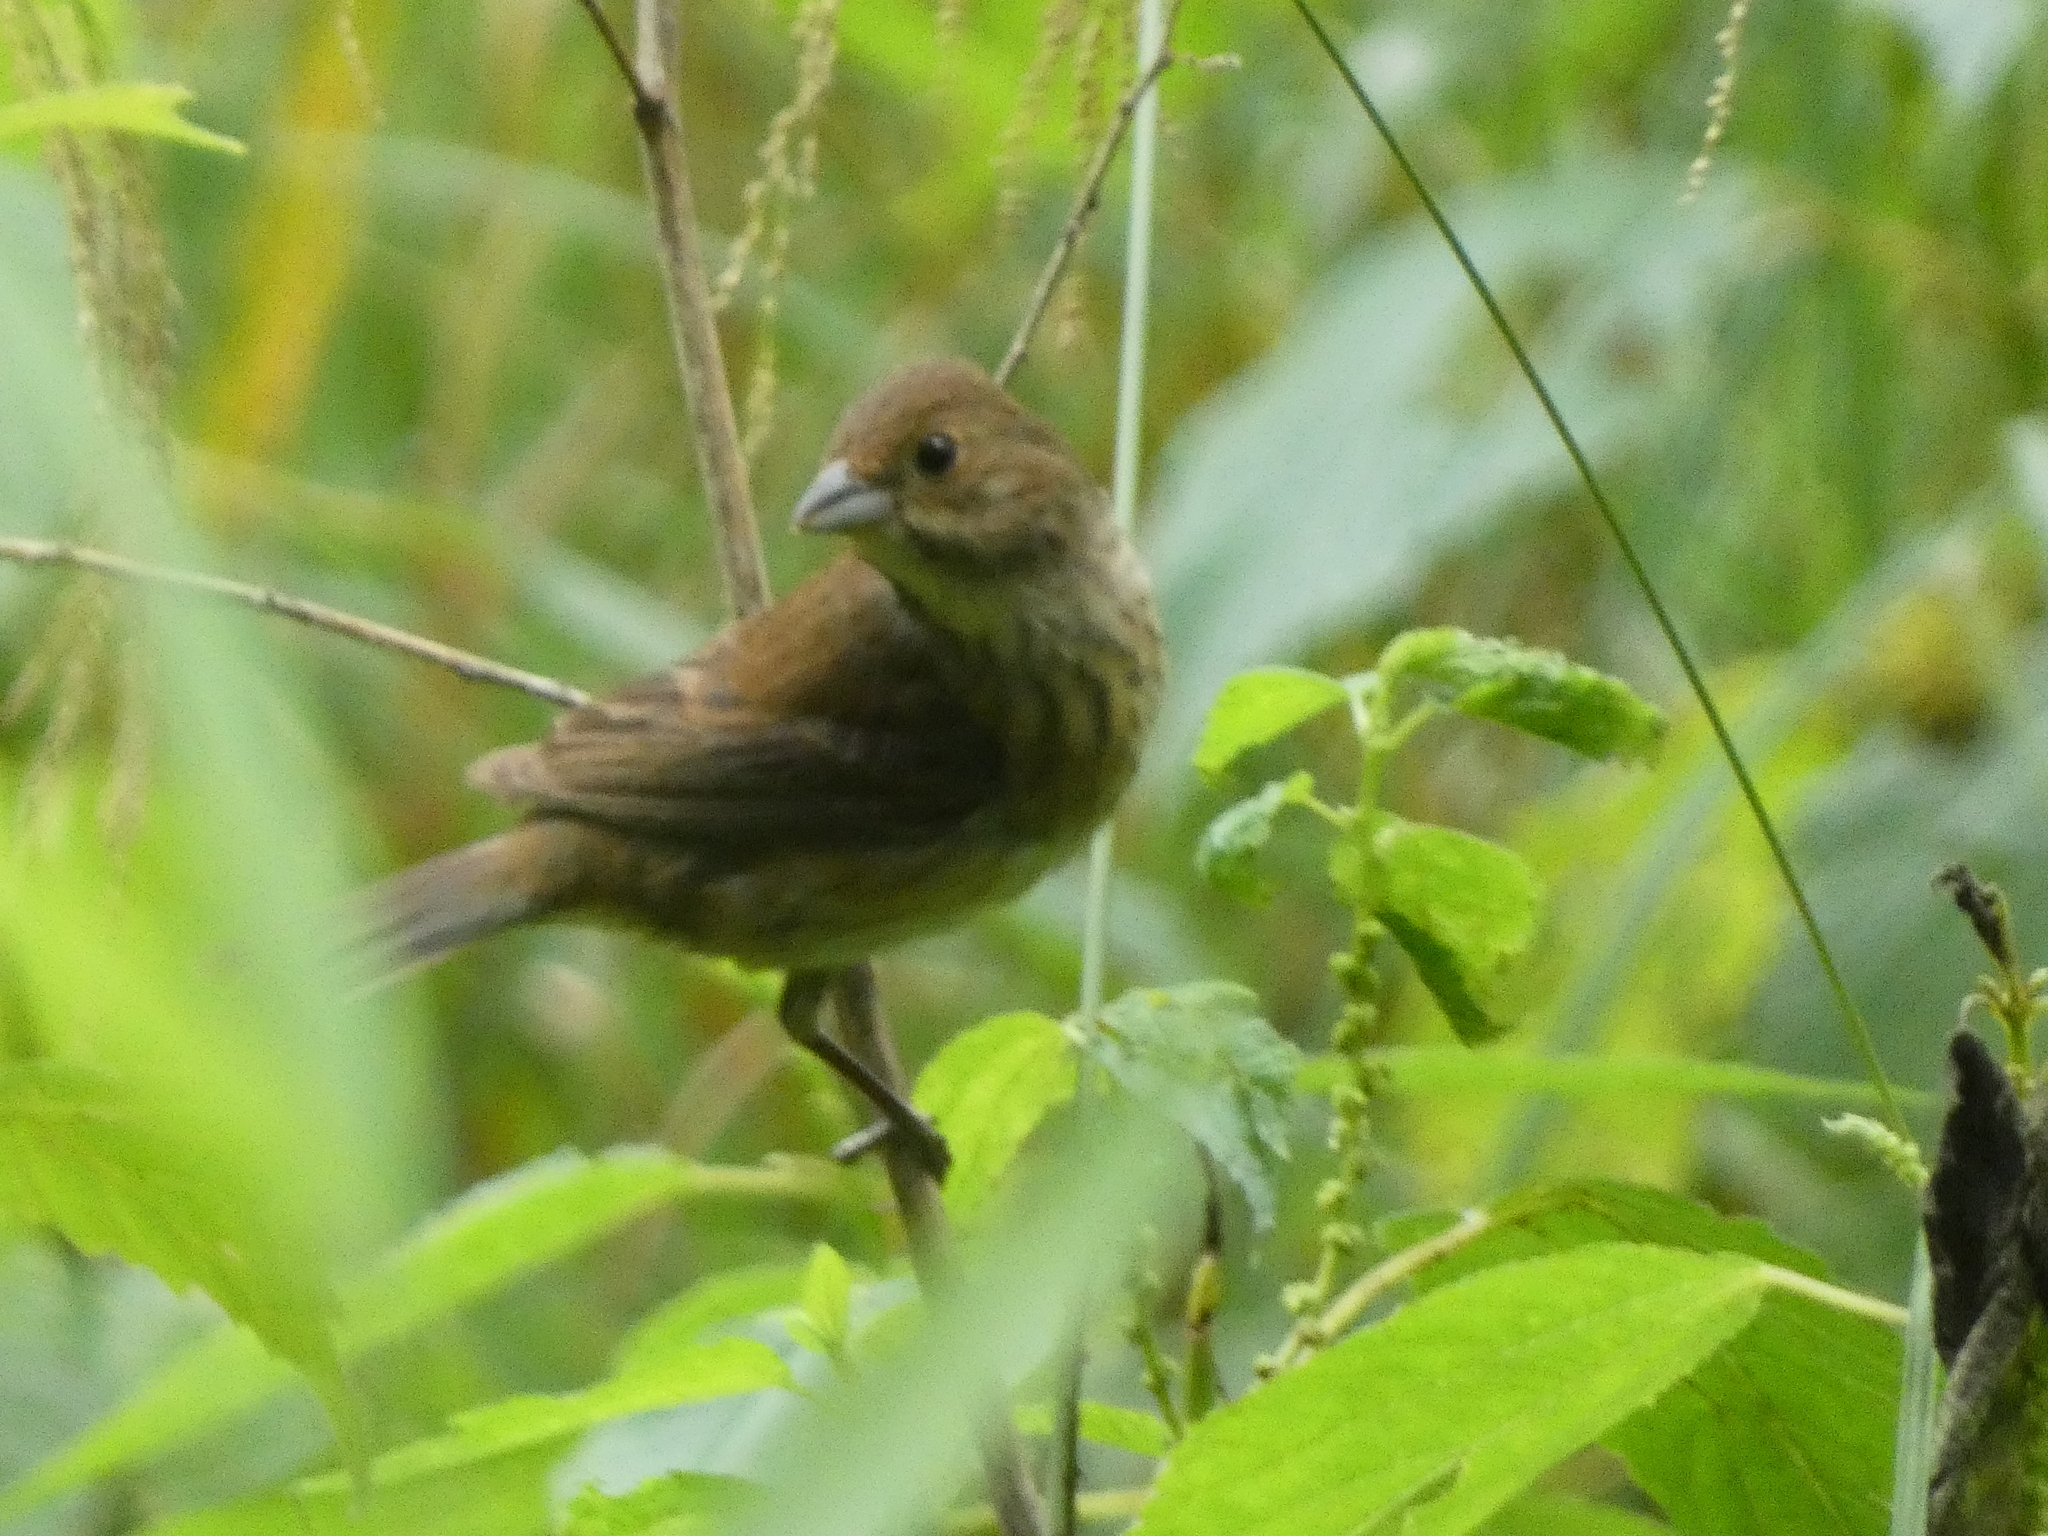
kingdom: Animalia
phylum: Chordata
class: Aves
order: Passeriformes
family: Cardinalidae
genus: Passerina
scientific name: Passerina cyanea
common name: Indigo bunting
